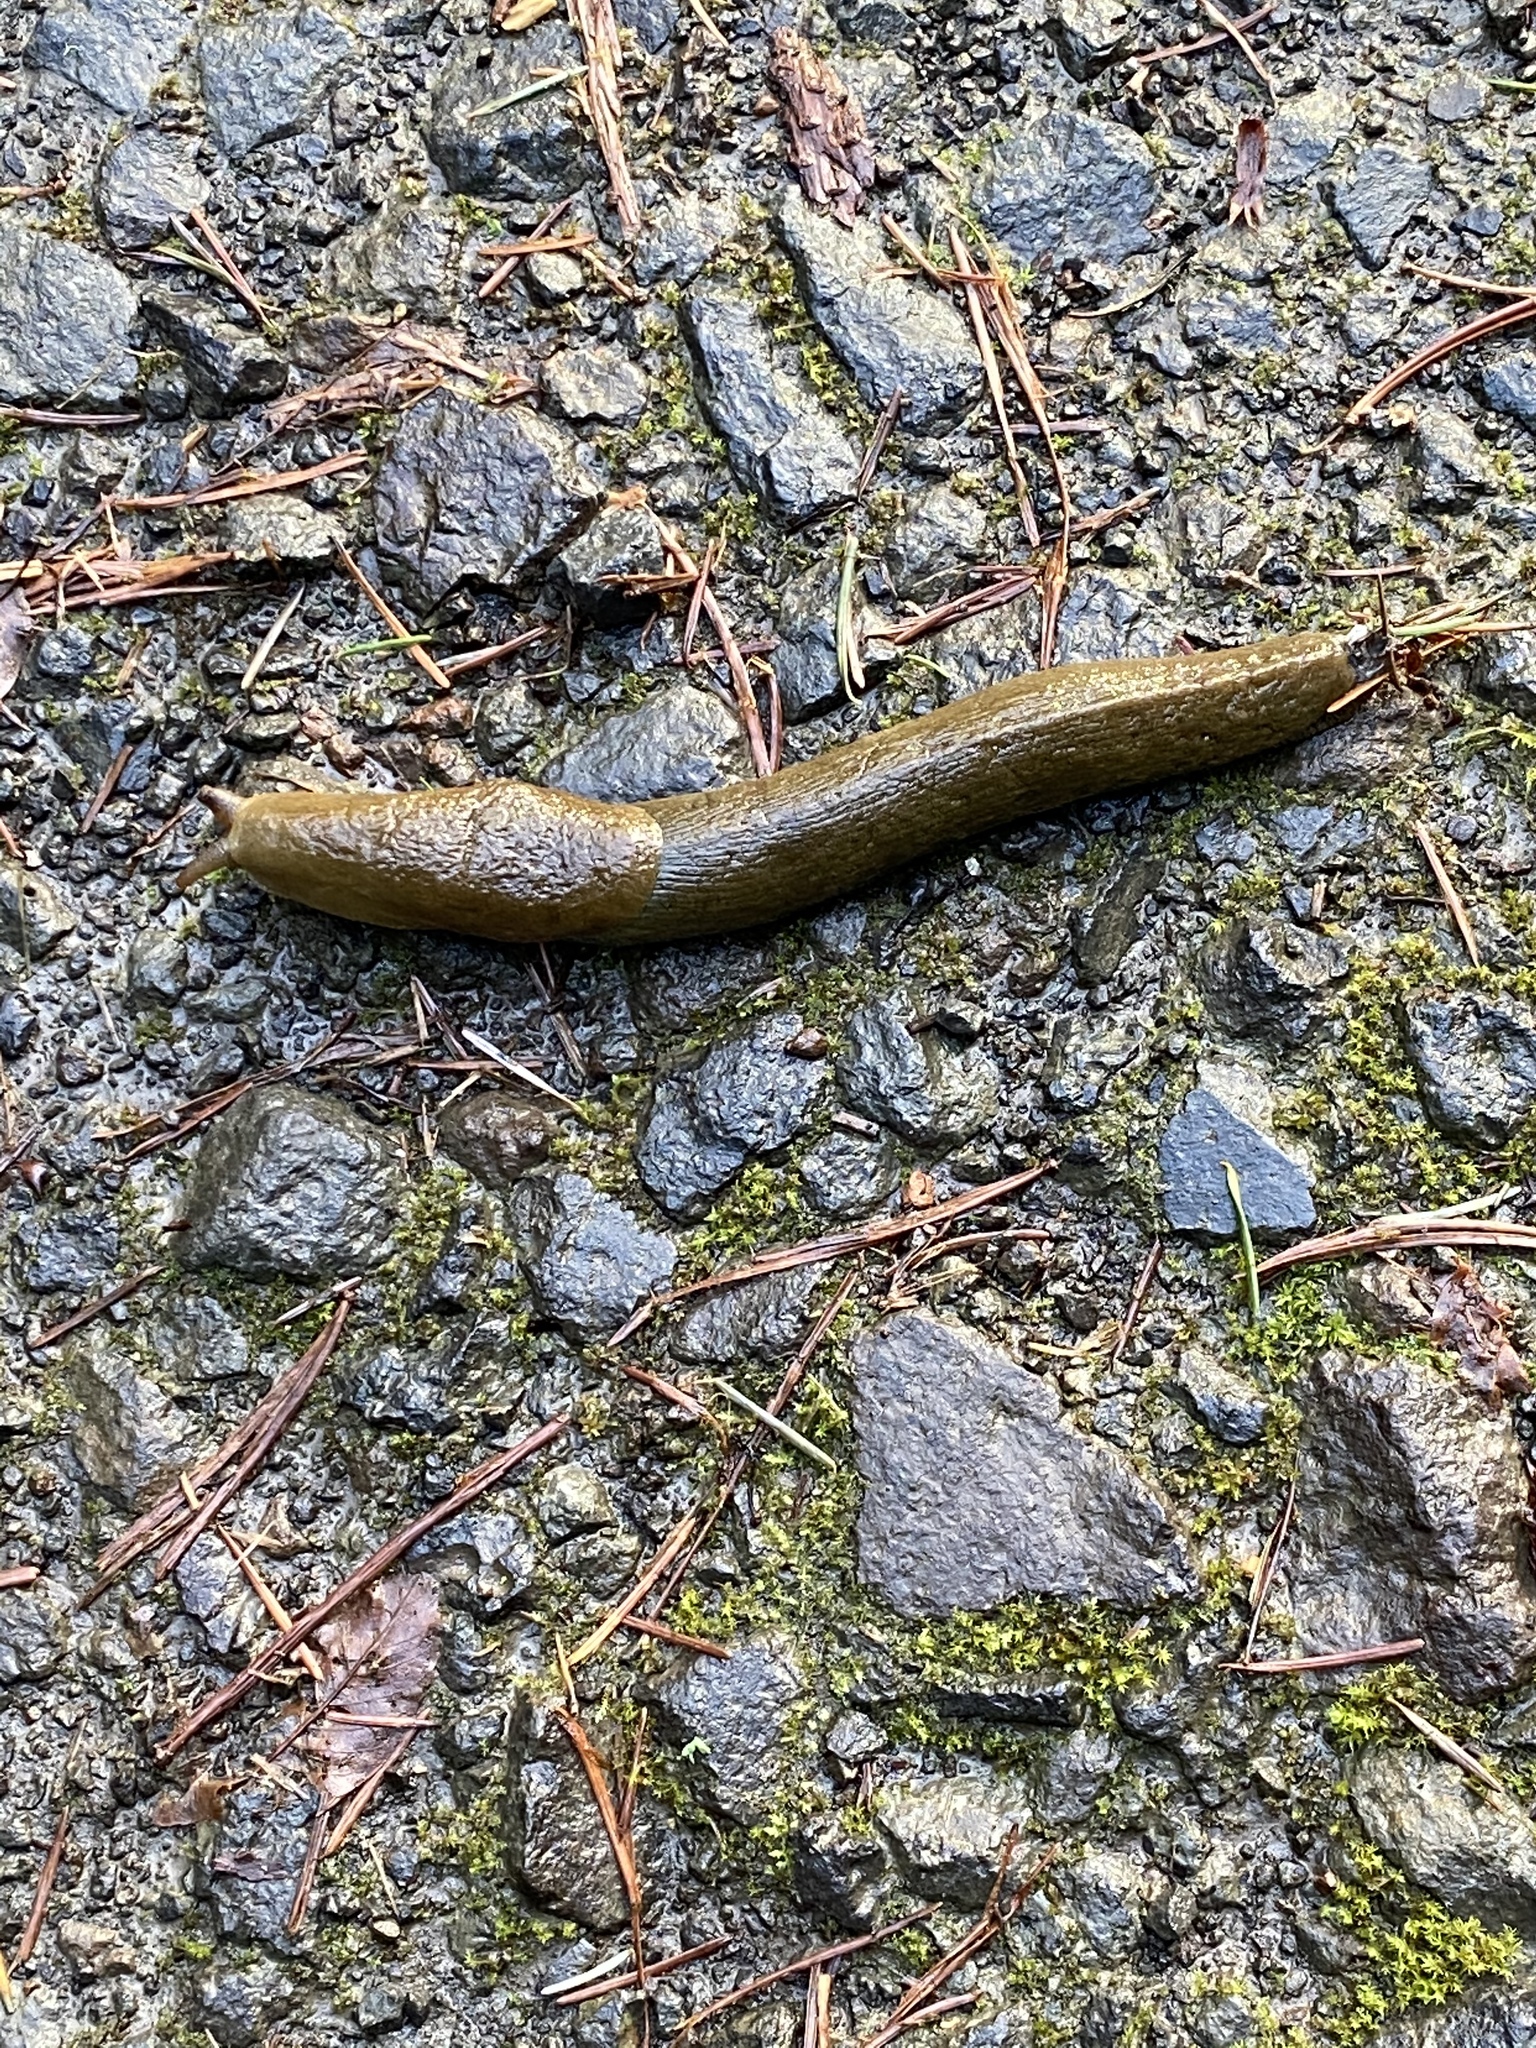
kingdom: Animalia
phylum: Mollusca
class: Gastropoda
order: Stylommatophora
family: Ariolimacidae
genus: Ariolimax
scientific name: Ariolimax columbianus
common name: Pacific banana slug
